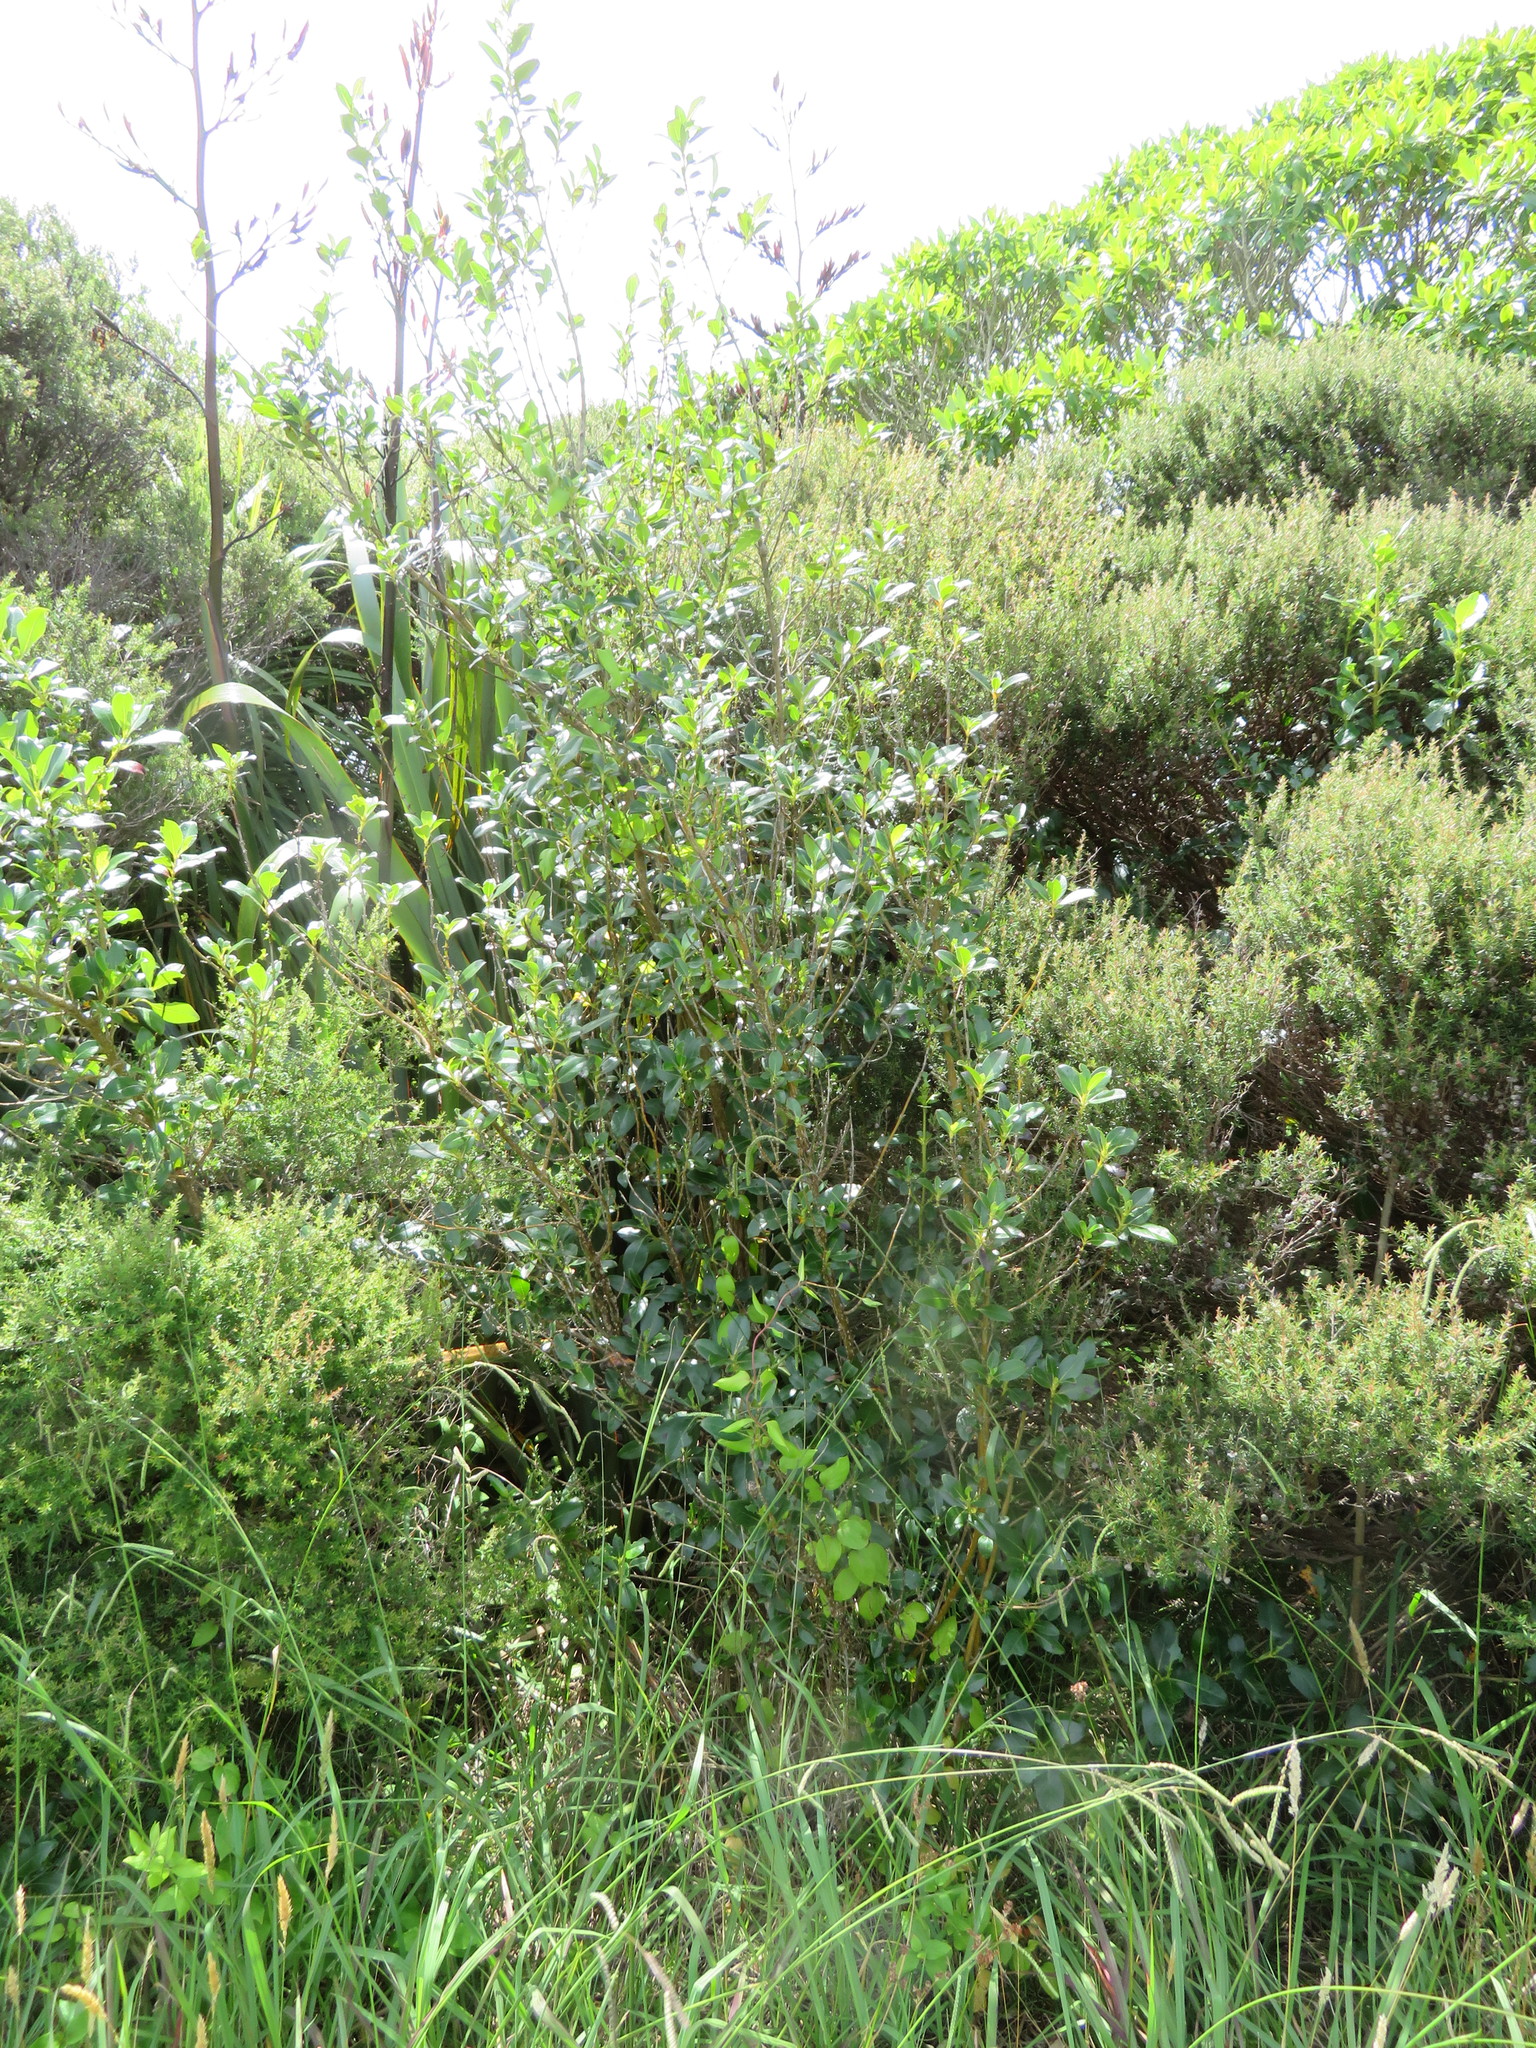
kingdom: Plantae
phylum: Tracheophyta
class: Magnoliopsida
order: Gentianales
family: Rubiaceae
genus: Coprosma
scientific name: Coprosma robusta
